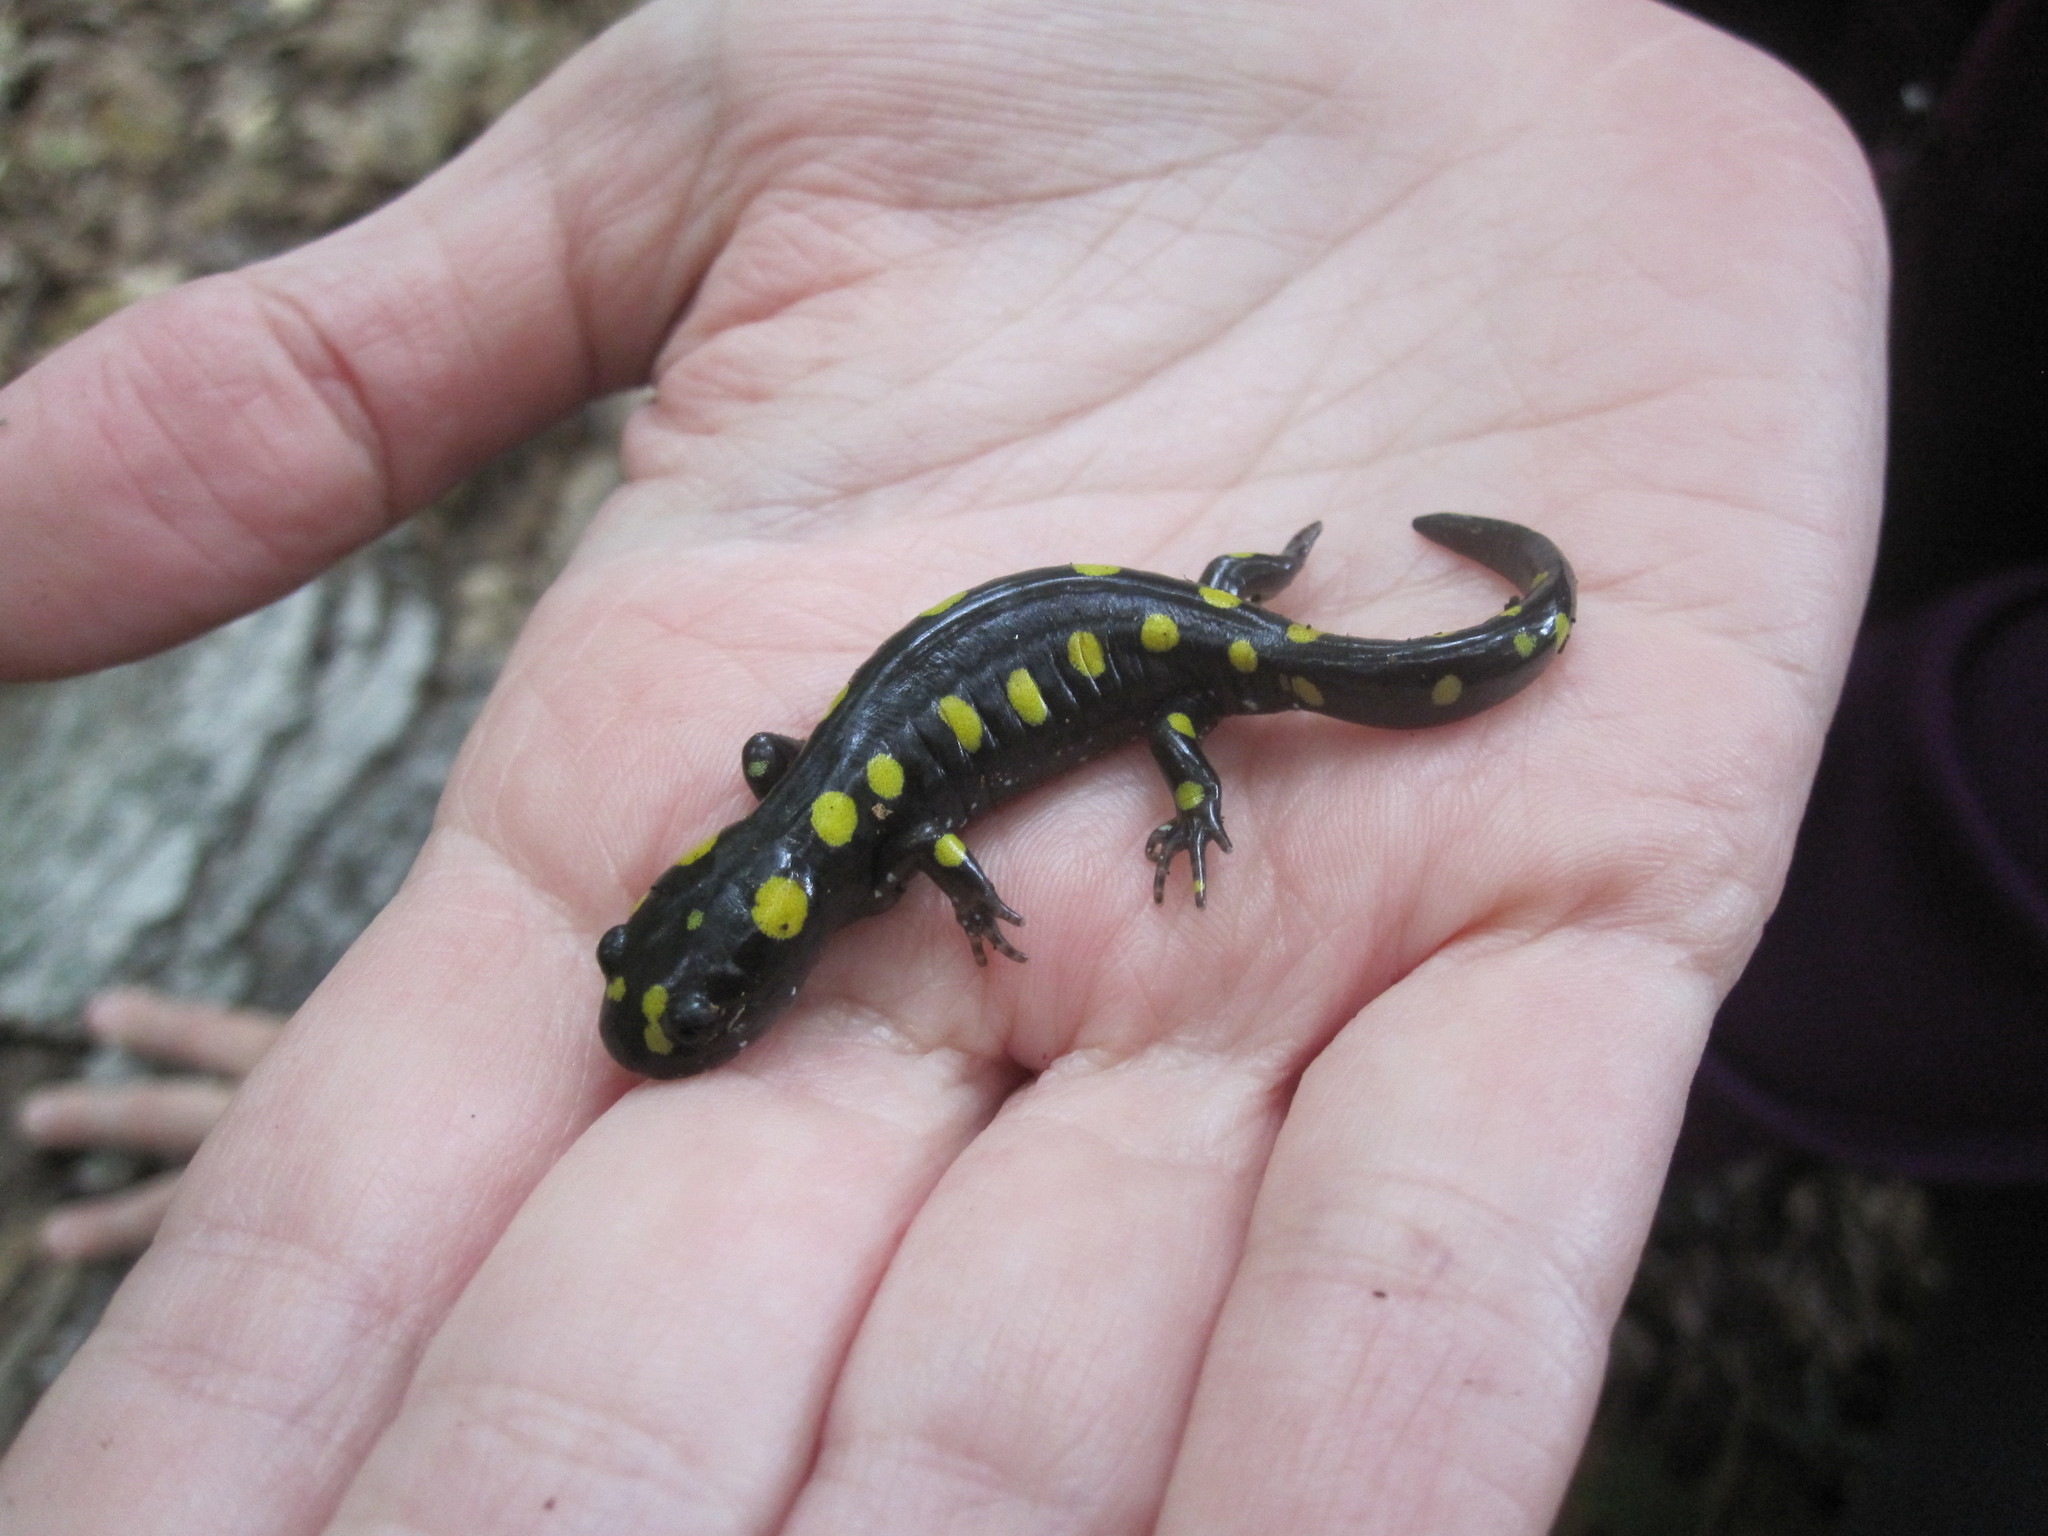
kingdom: Animalia
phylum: Chordata
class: Amphibia
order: Caudata
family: Ambystomatidae
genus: Ambystoma
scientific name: Ambystoma maculatum
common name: Spotted salamander
